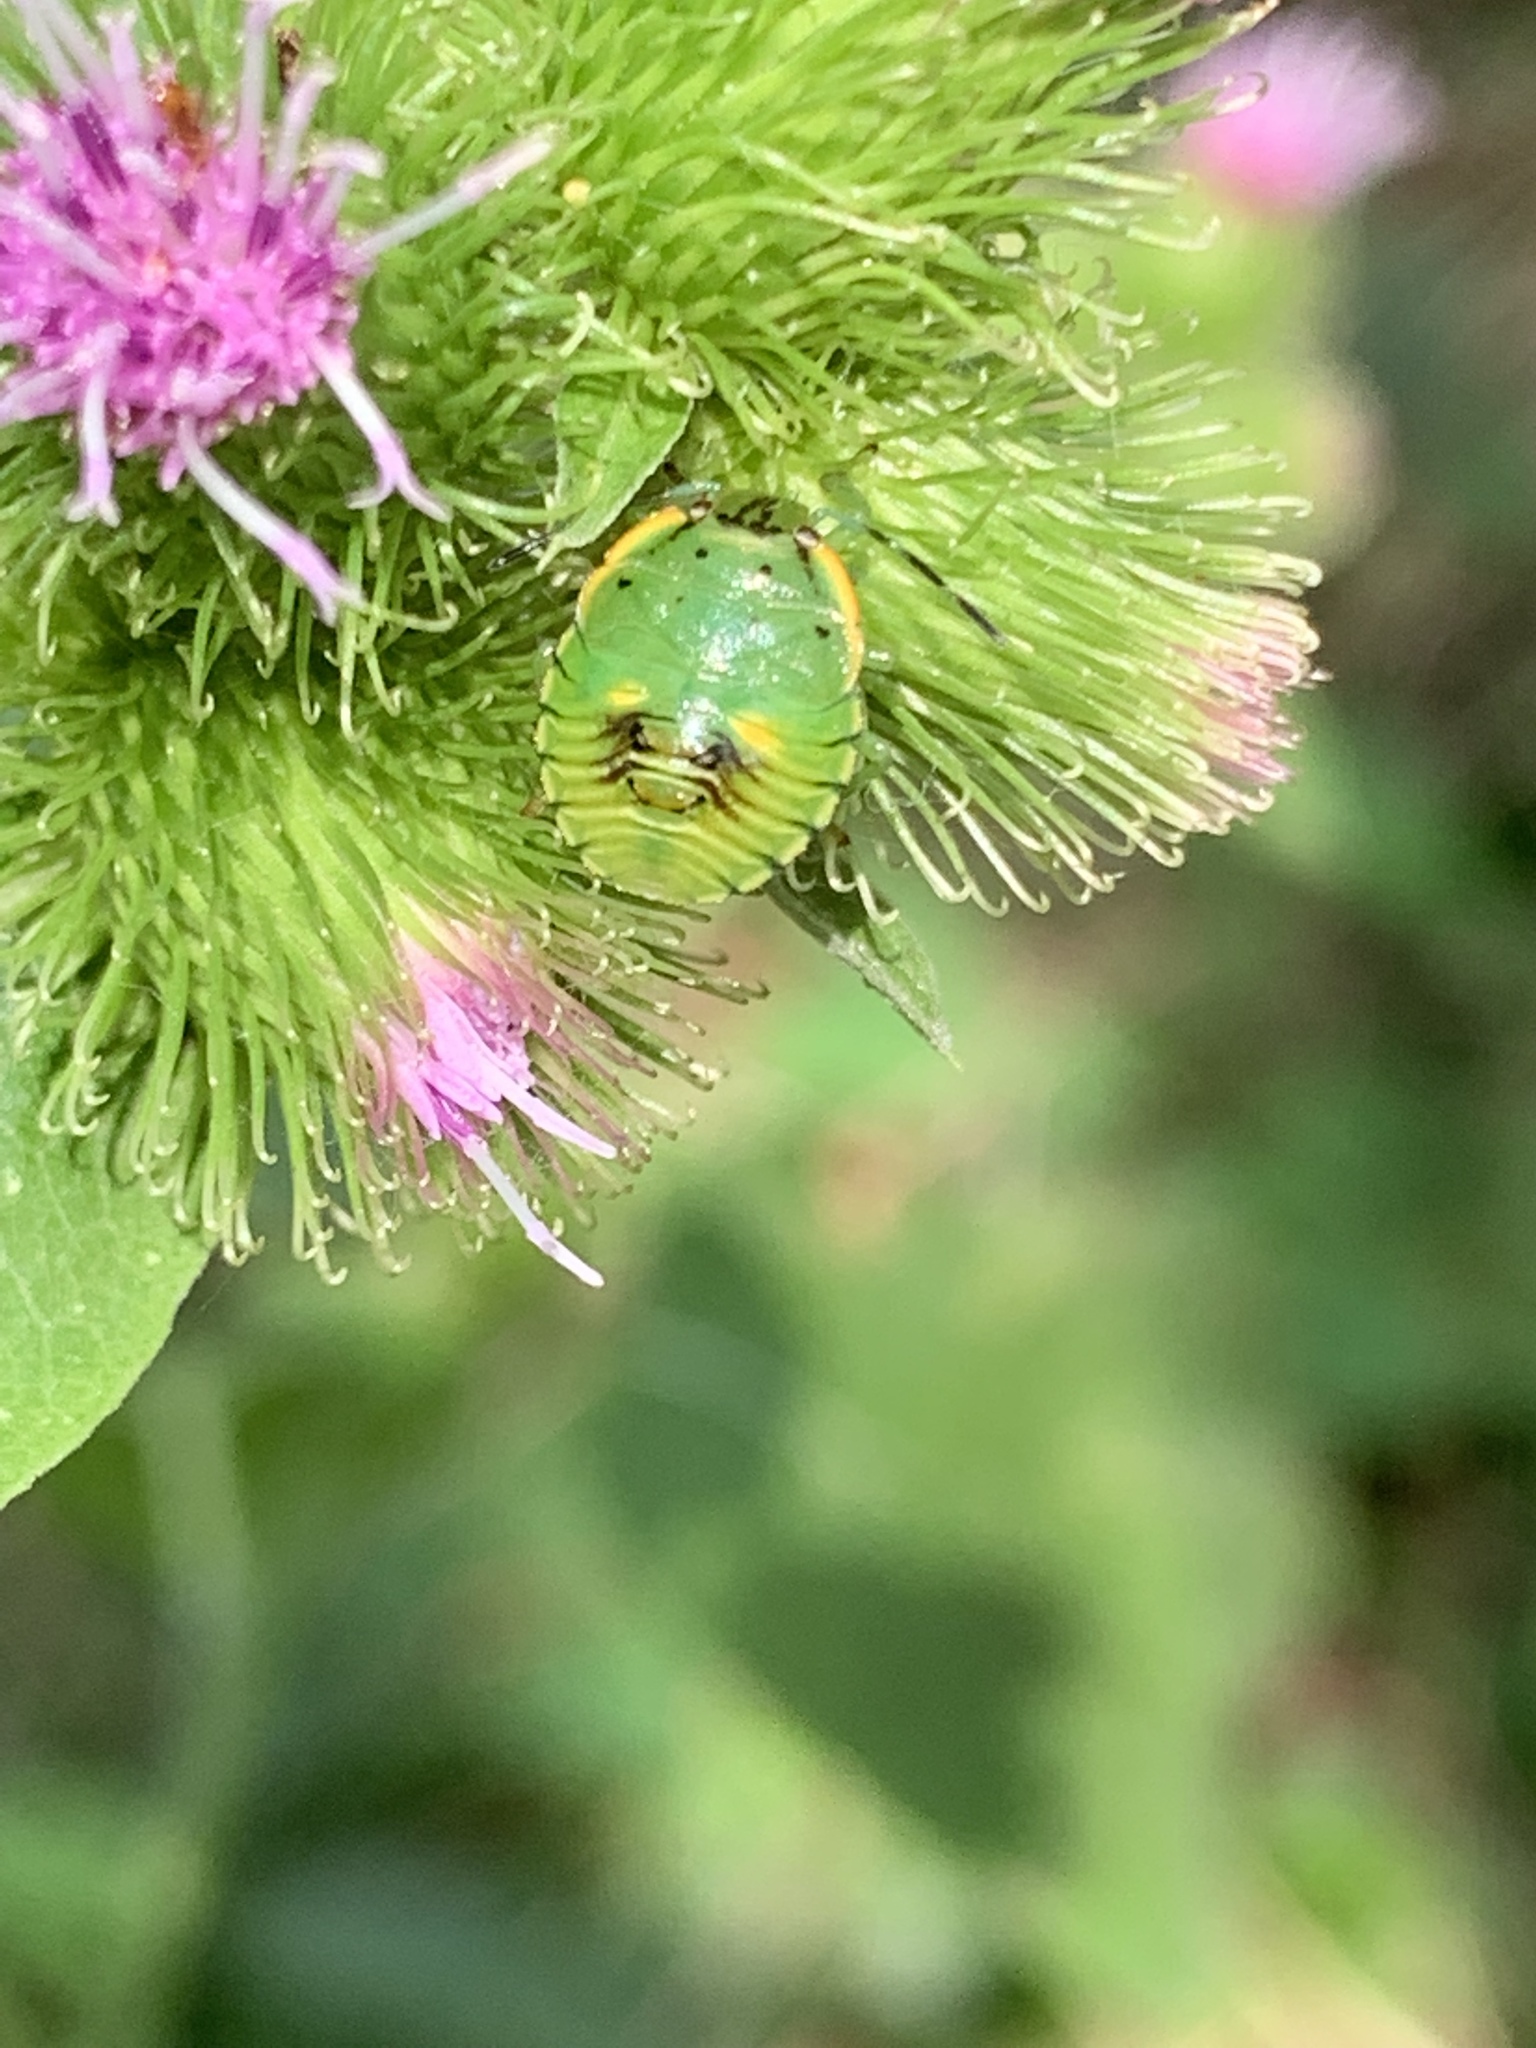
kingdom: Animalia
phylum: Arthropoda
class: Insecta
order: Hemiptera
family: Pentatomidae
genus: Chinavia
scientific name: Chinavia hilaris
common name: Green stink bug
